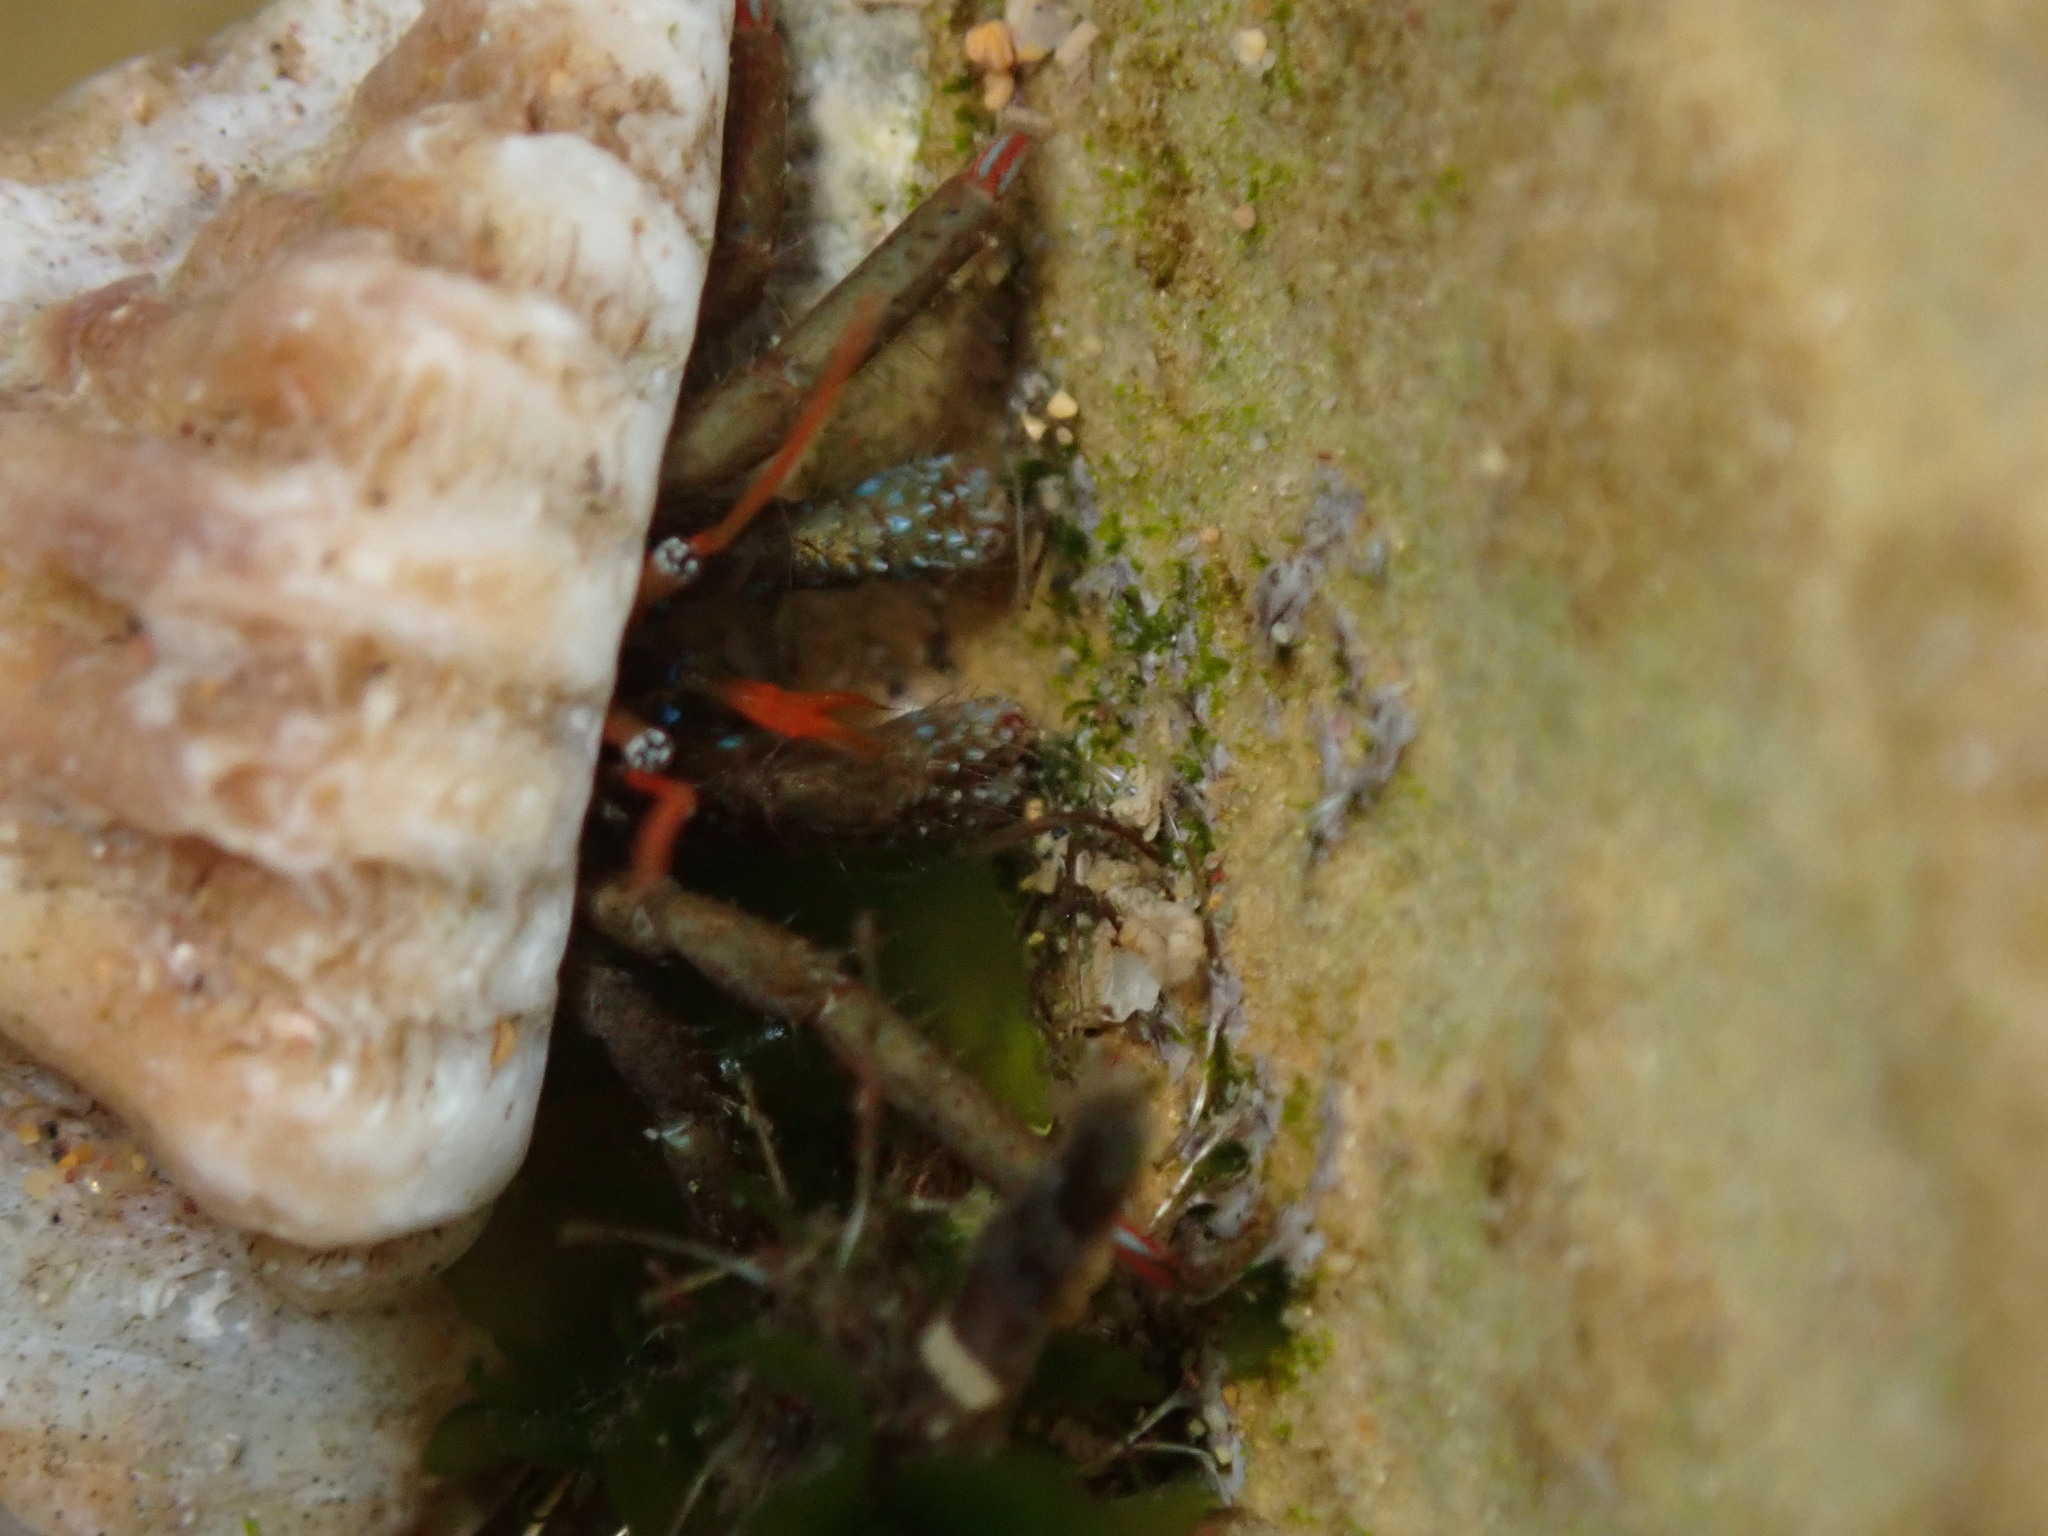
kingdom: Animalia
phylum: Arthropoda
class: Malacostraca
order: Decapoda
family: Diogenidae
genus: Clibanarius
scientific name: Clibanarius erythropus
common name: Hermit crab
